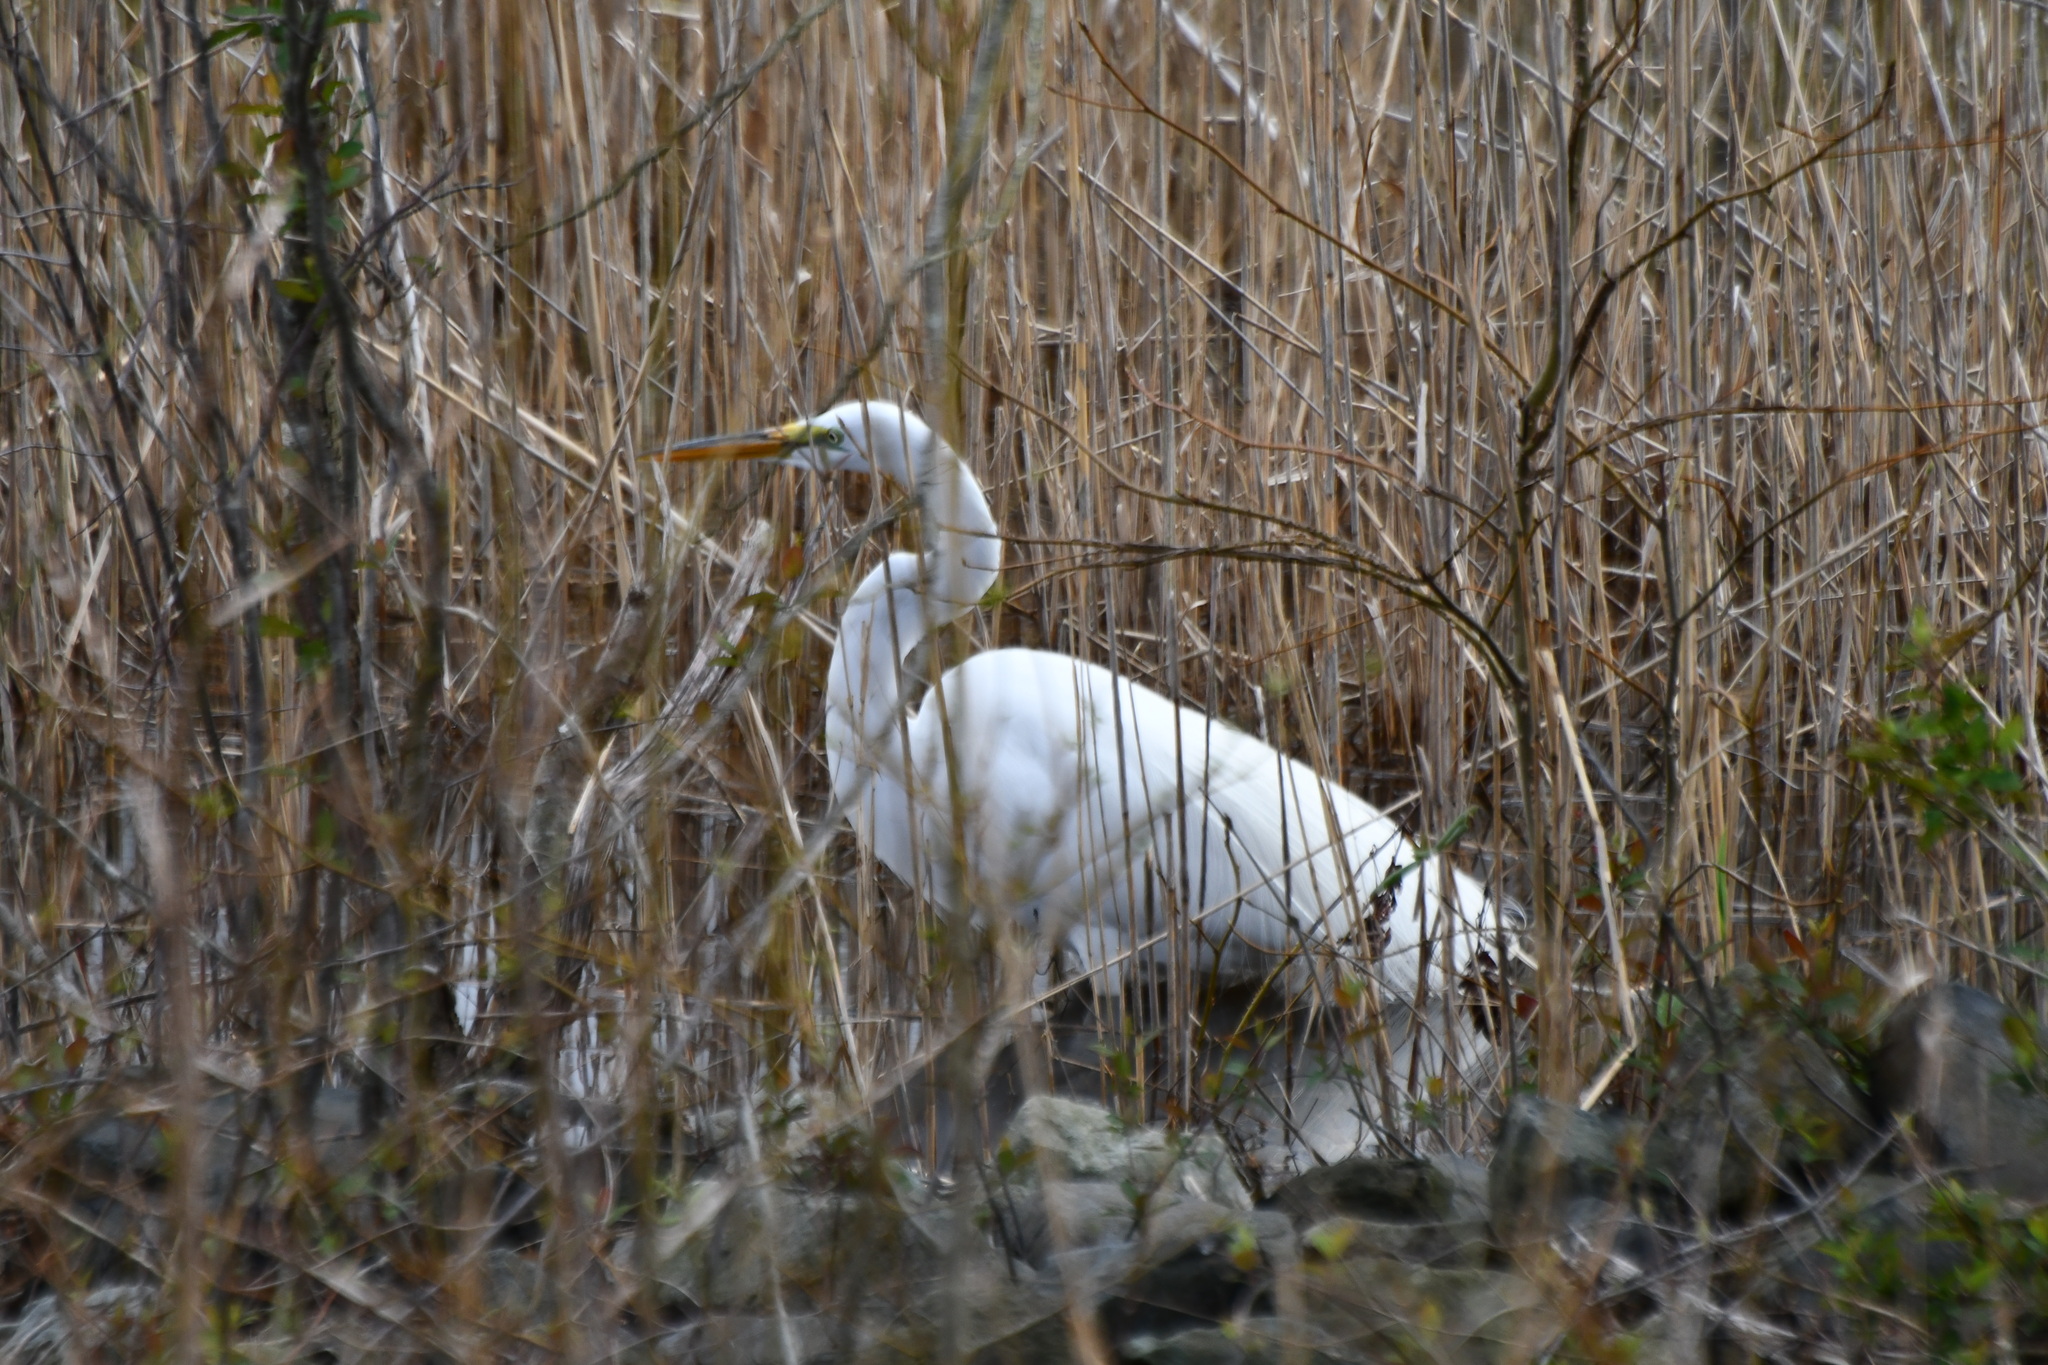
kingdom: Animalia
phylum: Chordata
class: Aves
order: Pelecaniformes
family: Ardeidae
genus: Ardea
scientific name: Ardea alba
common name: Great egret
